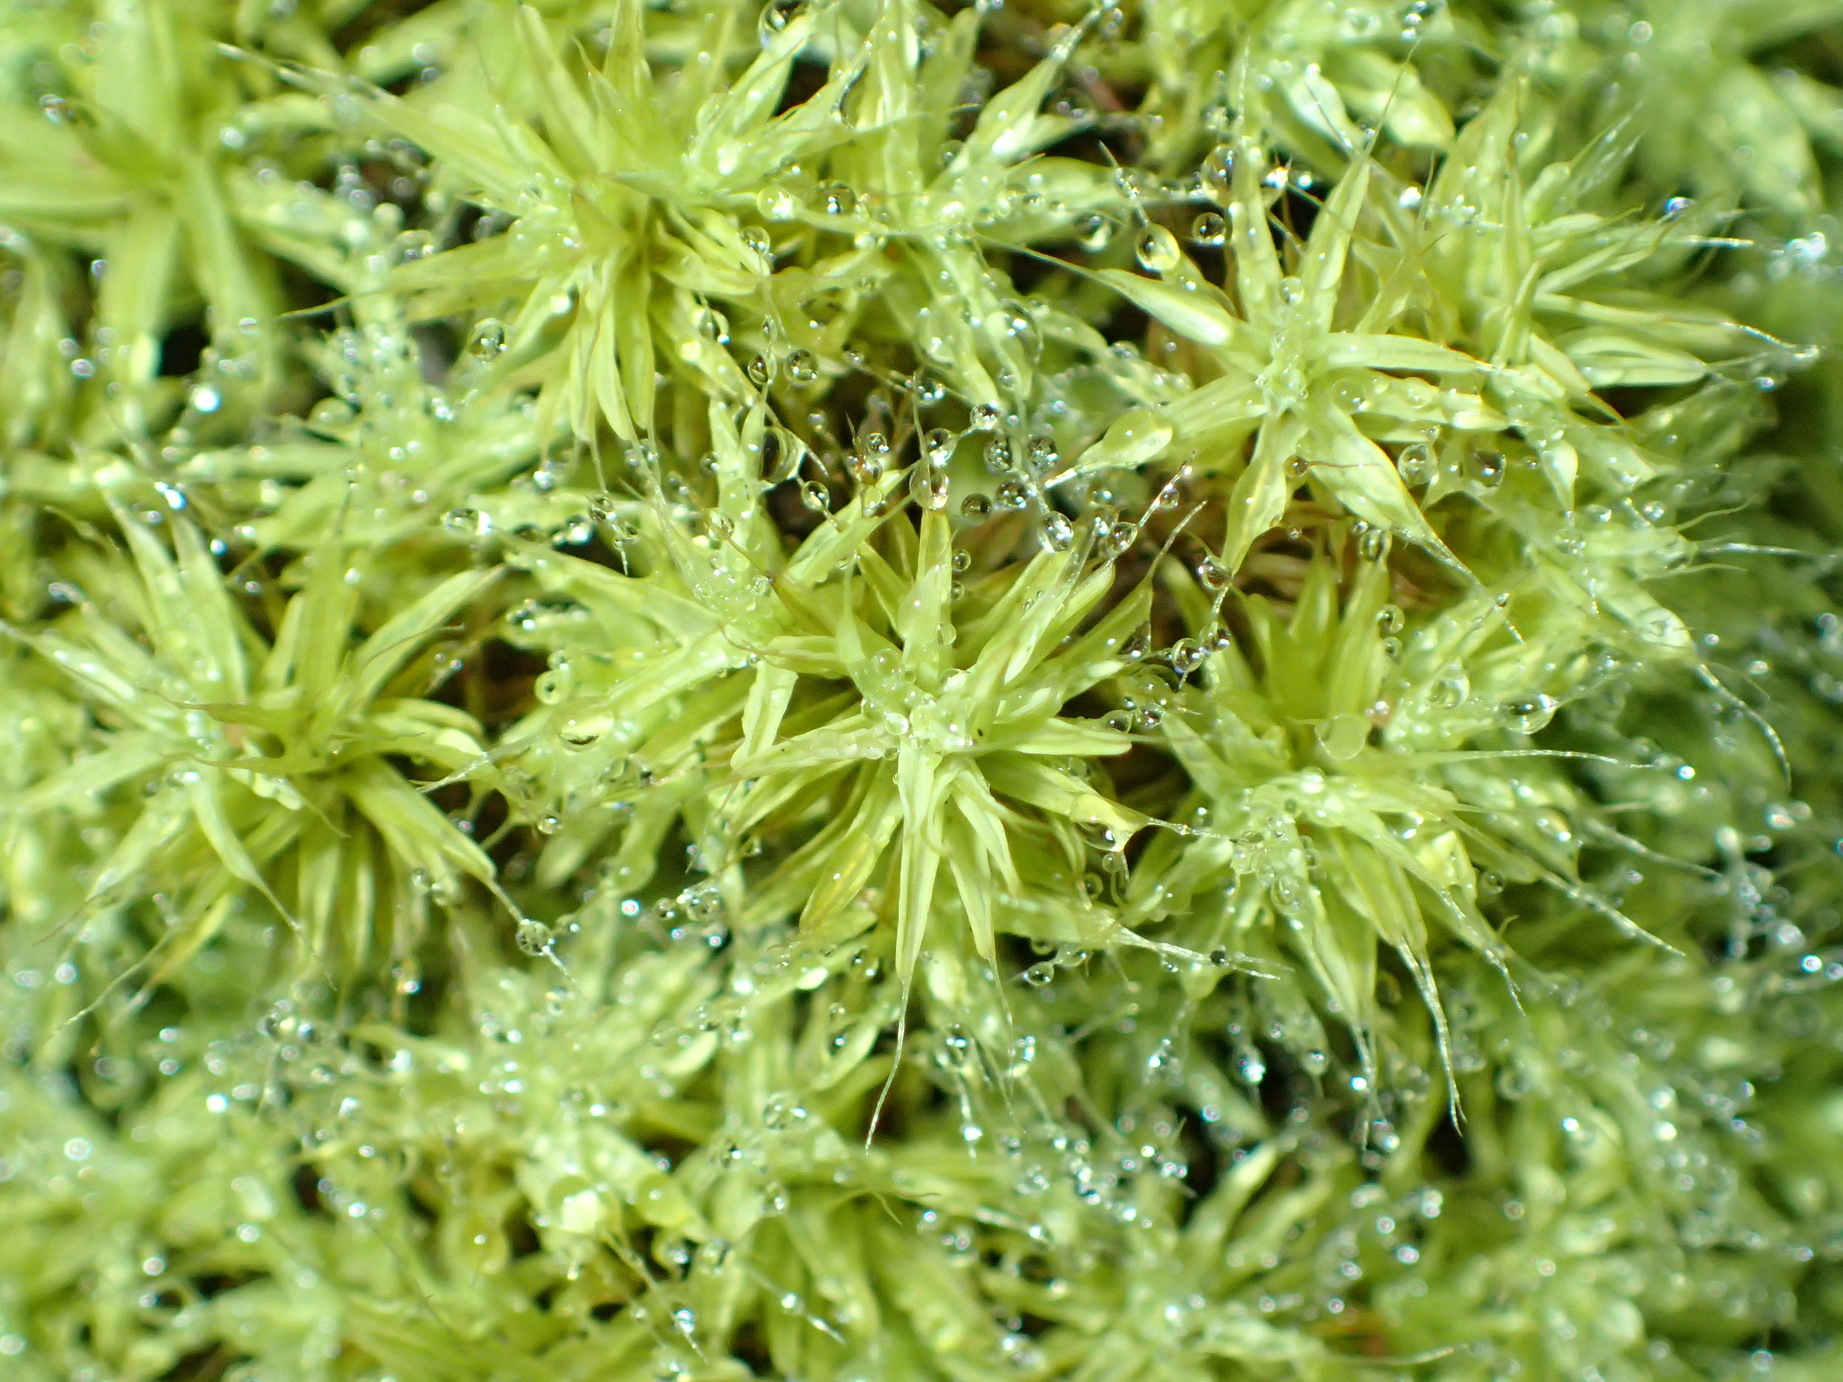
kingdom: Plantae
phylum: Bryophyta
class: Bryopsida
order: Pottiales
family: Pottiaceae
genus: Pseudocrossidium
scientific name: Pseudocrossidium crinitum
